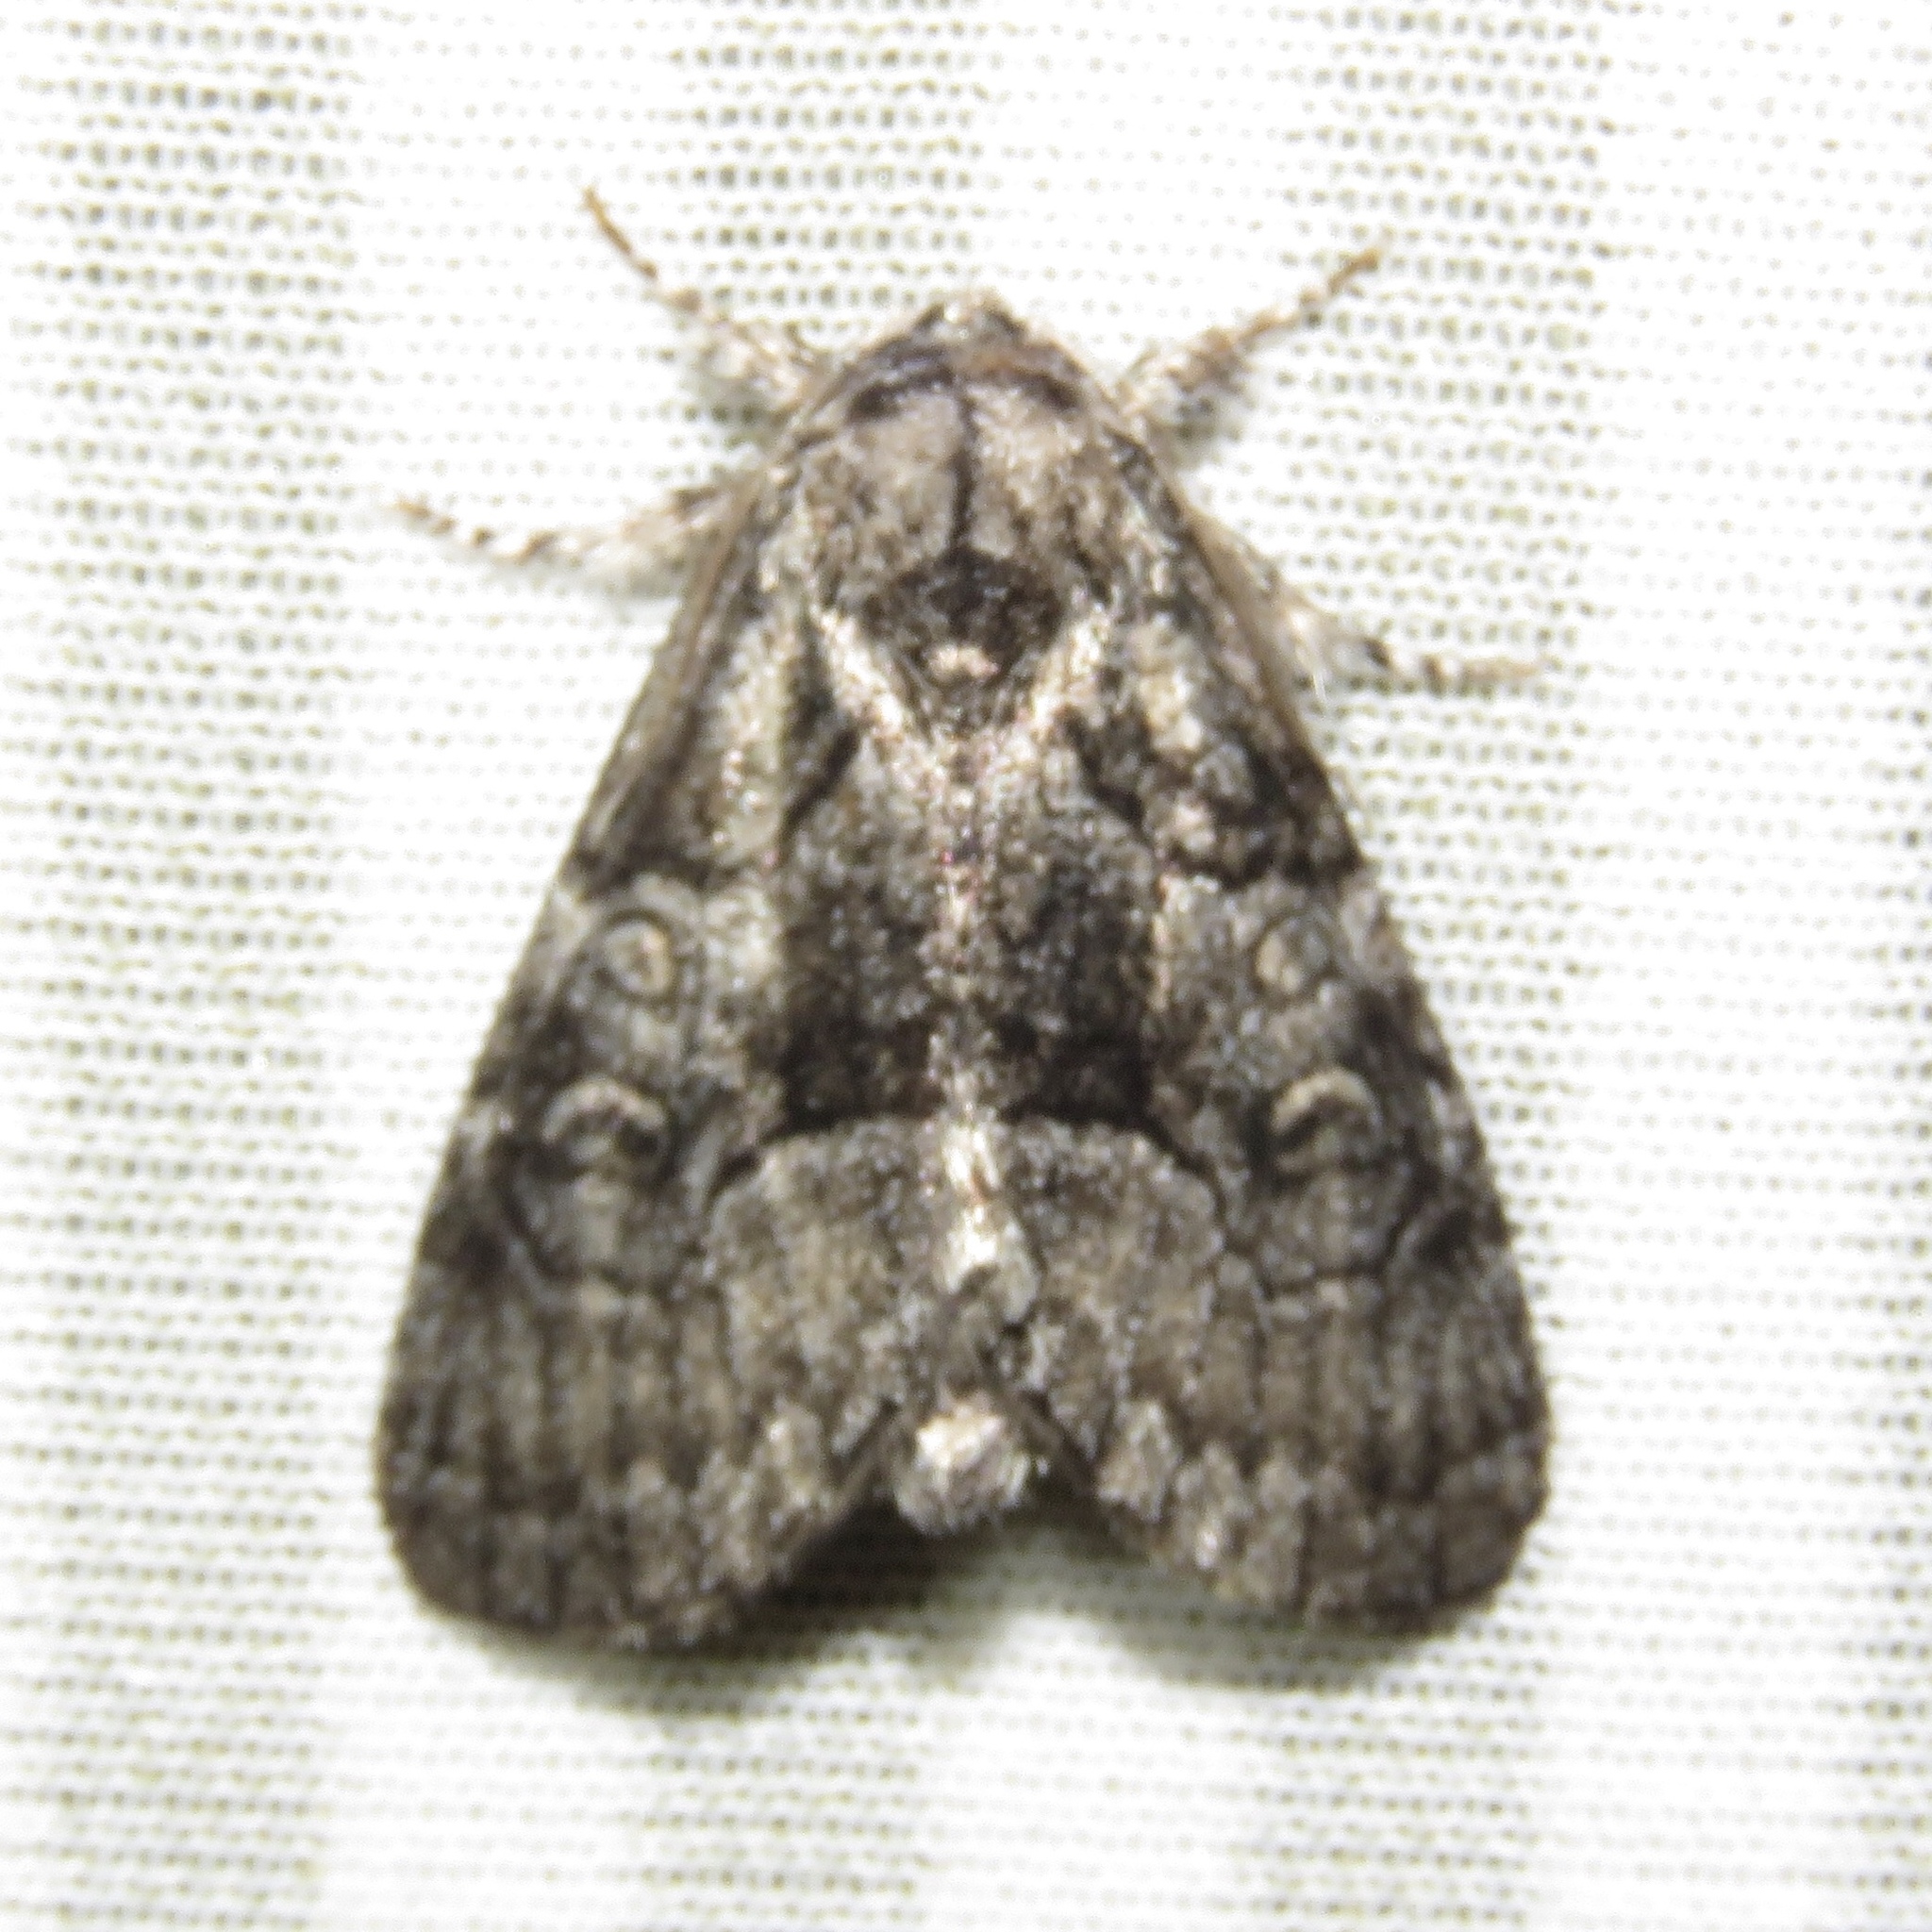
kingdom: Animalia
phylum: Arthropoda
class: Insecta
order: Lepidoptera
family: Noctuidae
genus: Raphia
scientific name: Raphia frater
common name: Brother
